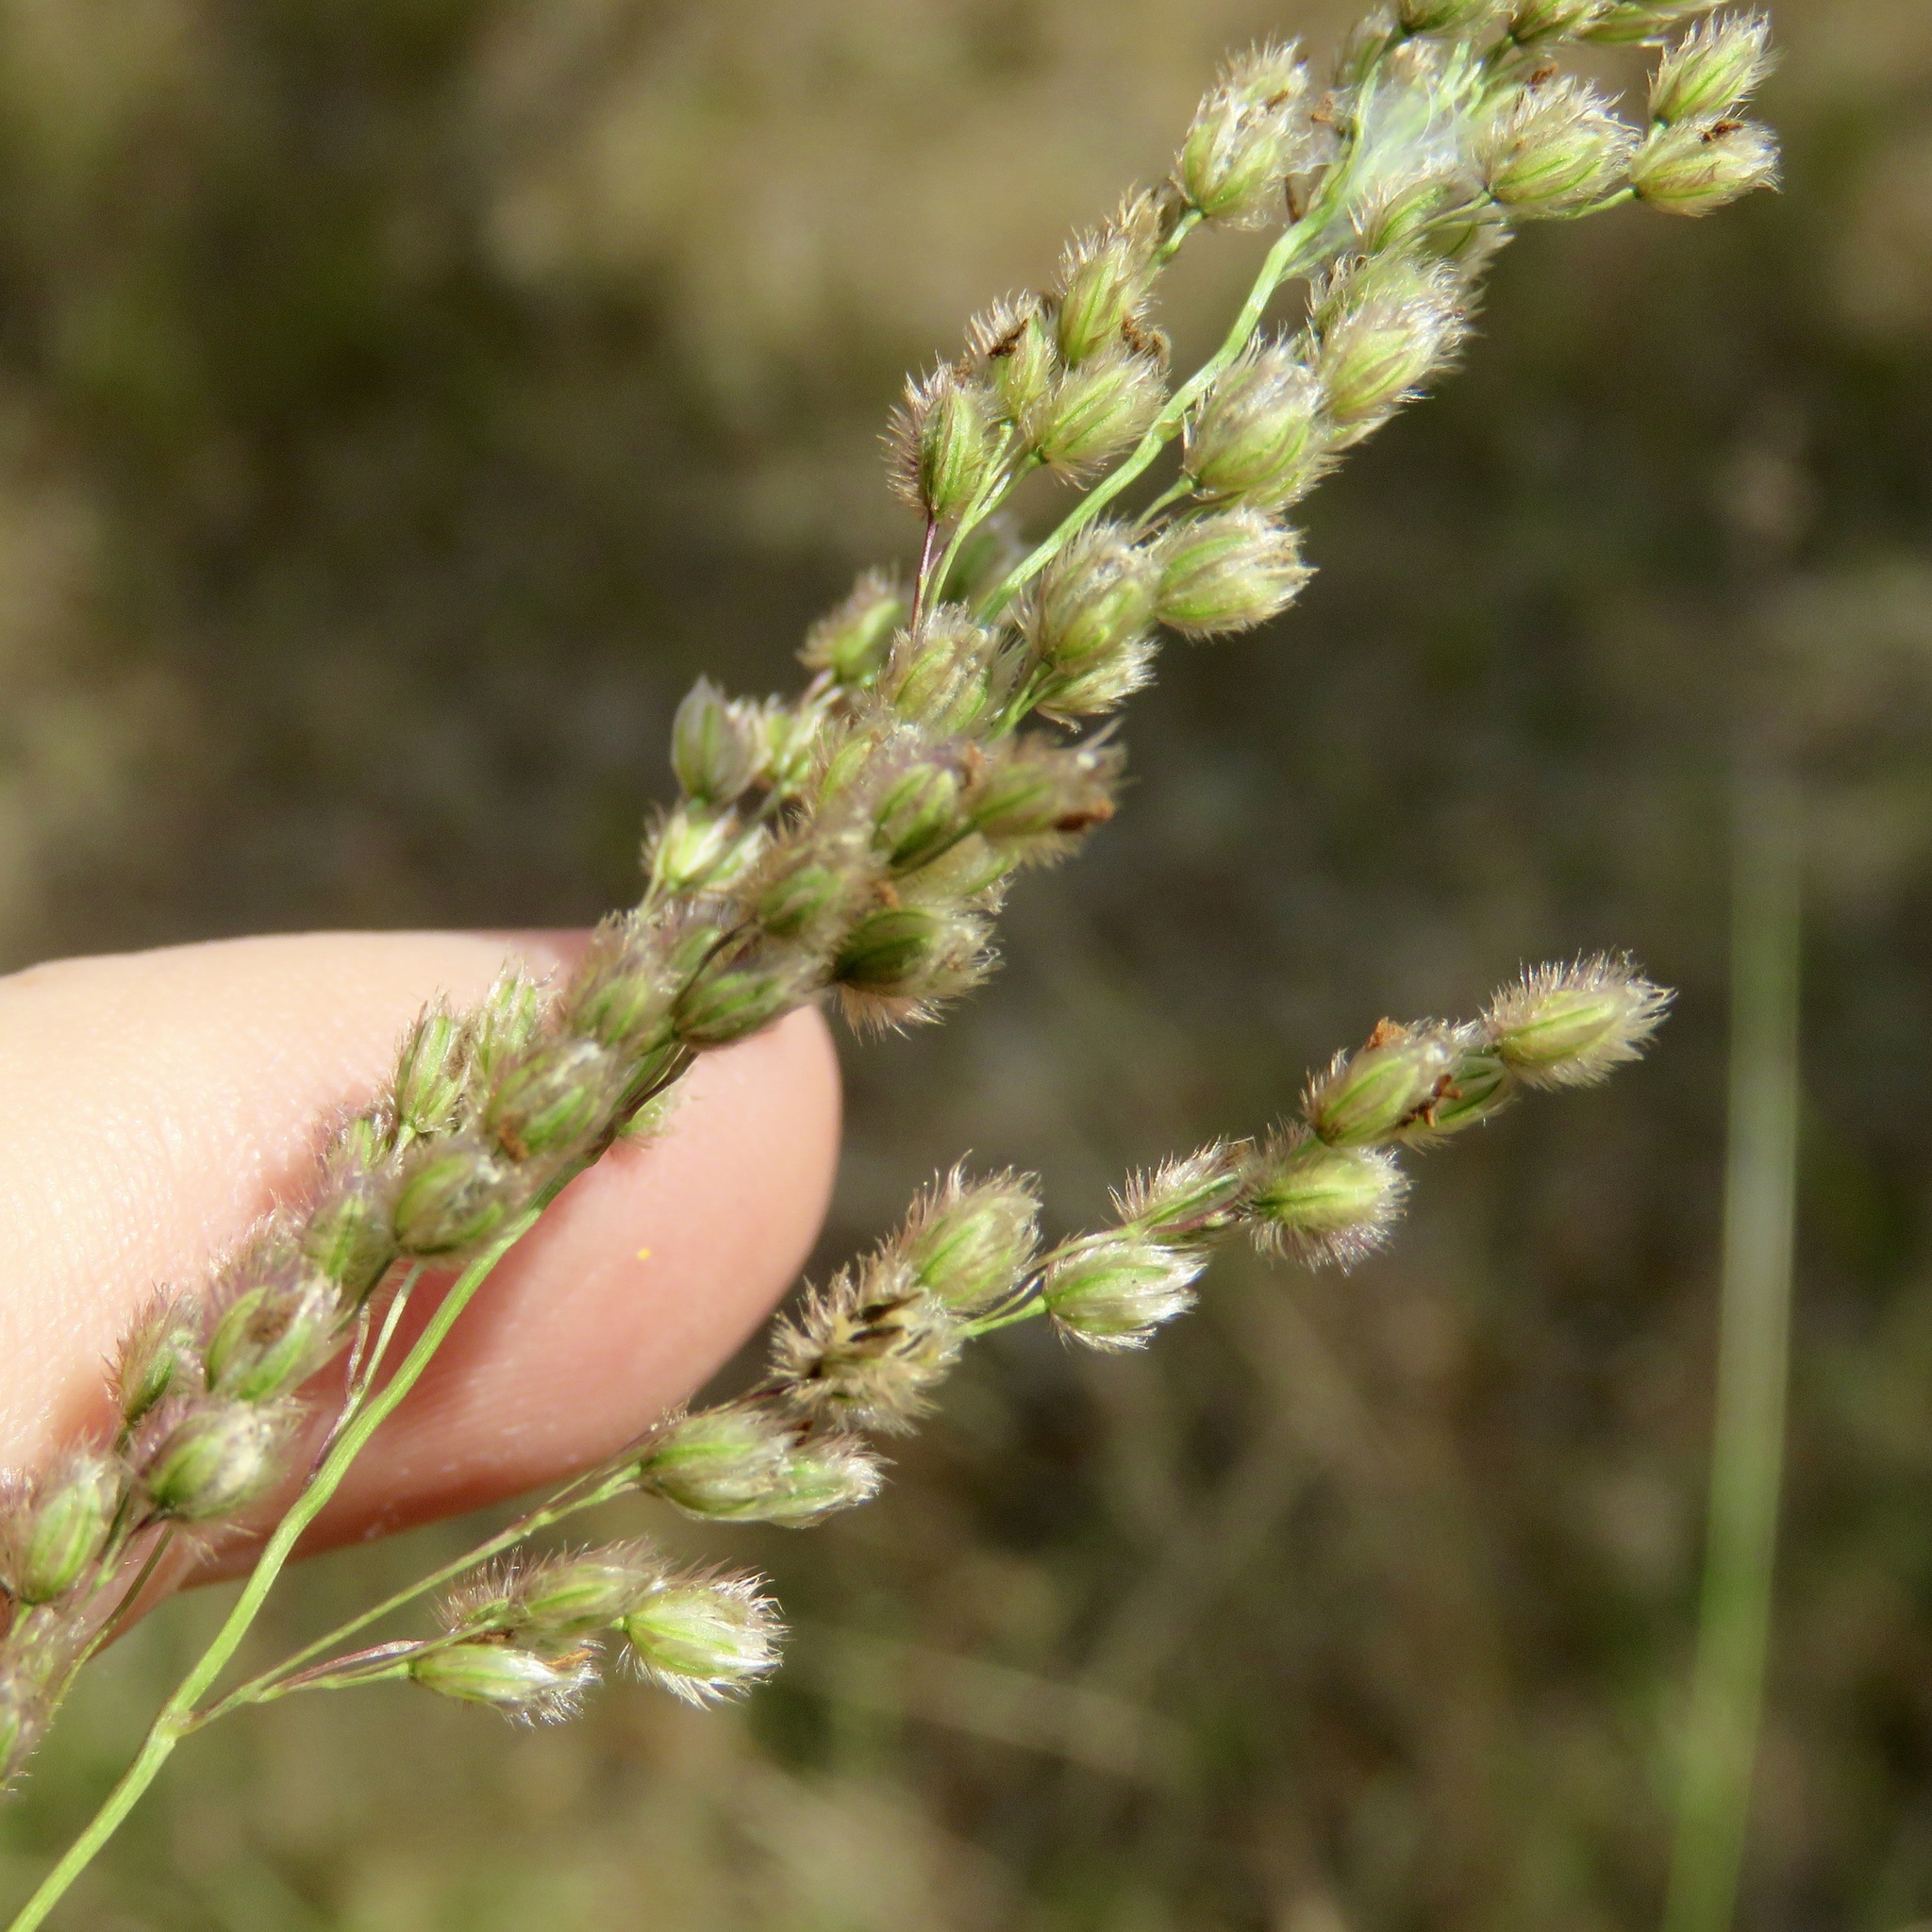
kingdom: Plantae
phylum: Tracheophyta
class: Liliopsida
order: Poales
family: Poaceae
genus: Anthenantia
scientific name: Anthenantia villosa
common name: Green silkyscale
